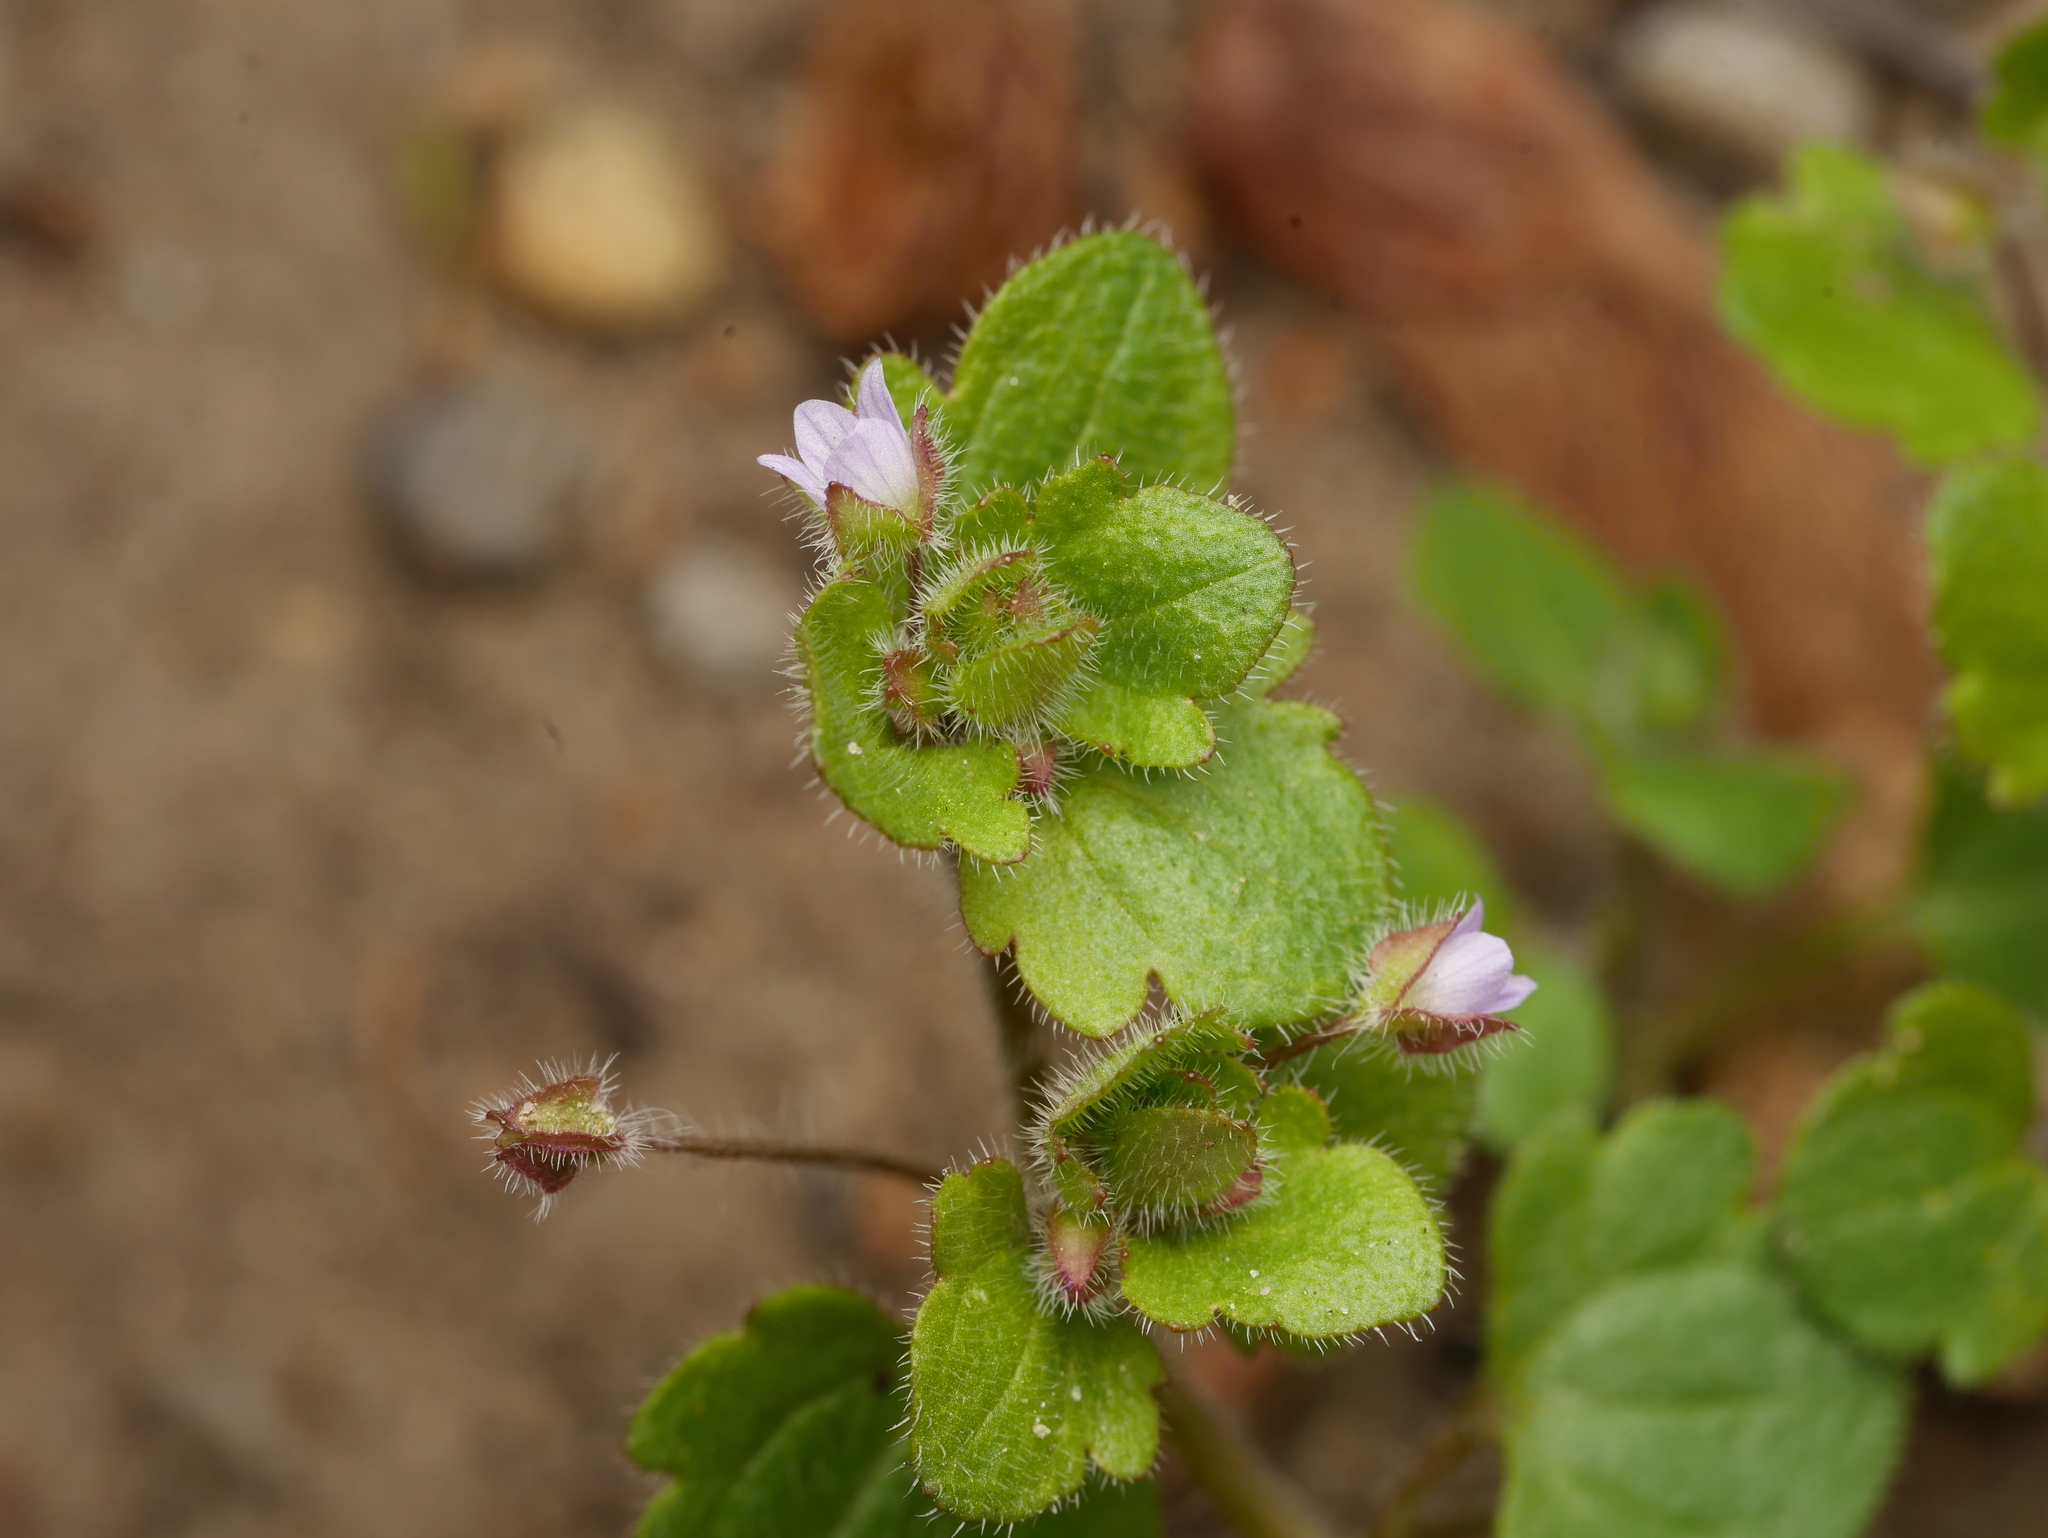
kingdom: Plantae
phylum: Tracheophyta
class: Magnoliopsida
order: Lamiales
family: Plantaginaceae
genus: Veronica
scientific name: Veronica sublobata
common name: False ivy-leaved speedwell
